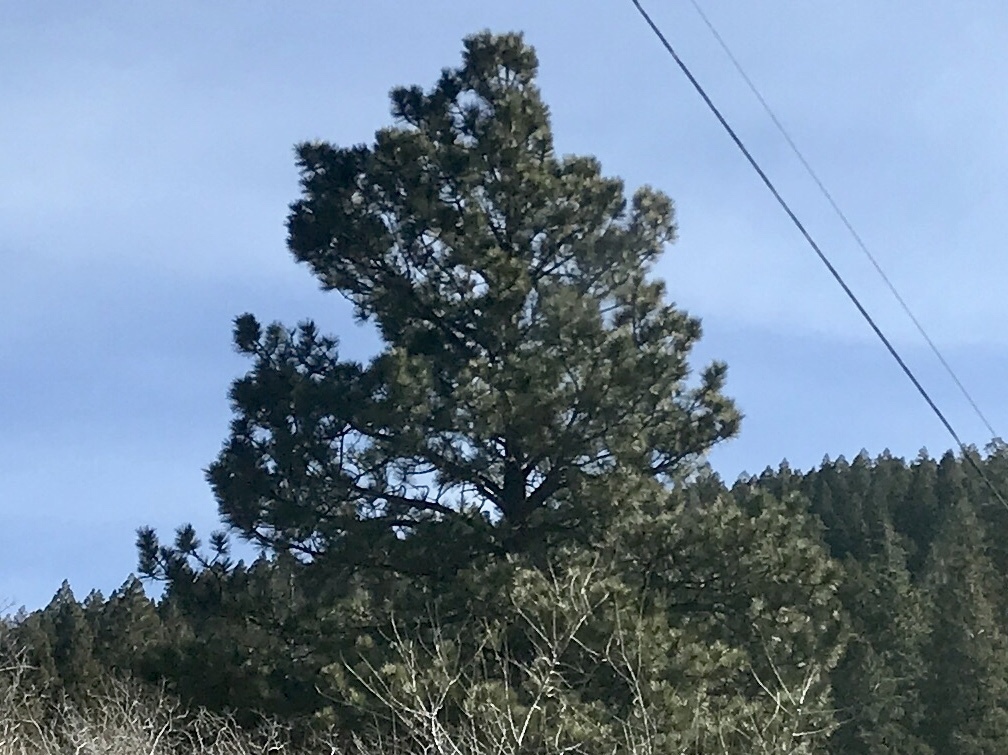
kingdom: Plantae
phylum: Tracheophyta
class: Pinopsida
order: Pinales
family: Pinaceae
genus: Pinus
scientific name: Pinus ponderosa
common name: Western yellow-pine
